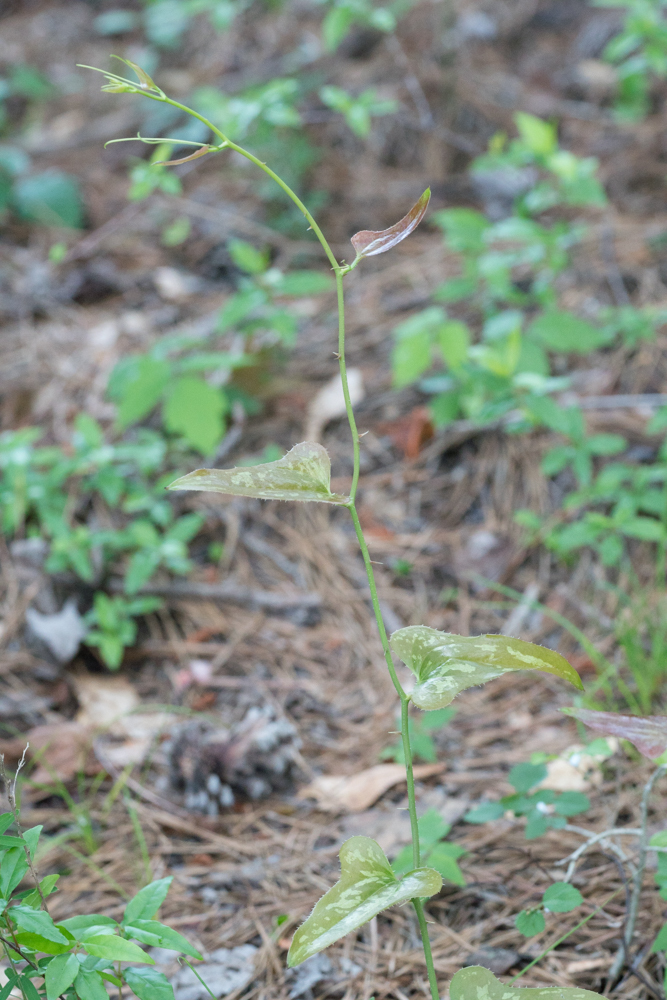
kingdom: Plantae
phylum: Tracheophyta
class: Liliopsida
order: Liliales
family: Smilacaceae
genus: Smilax
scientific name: Smilax bona-nox
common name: Catbrier
